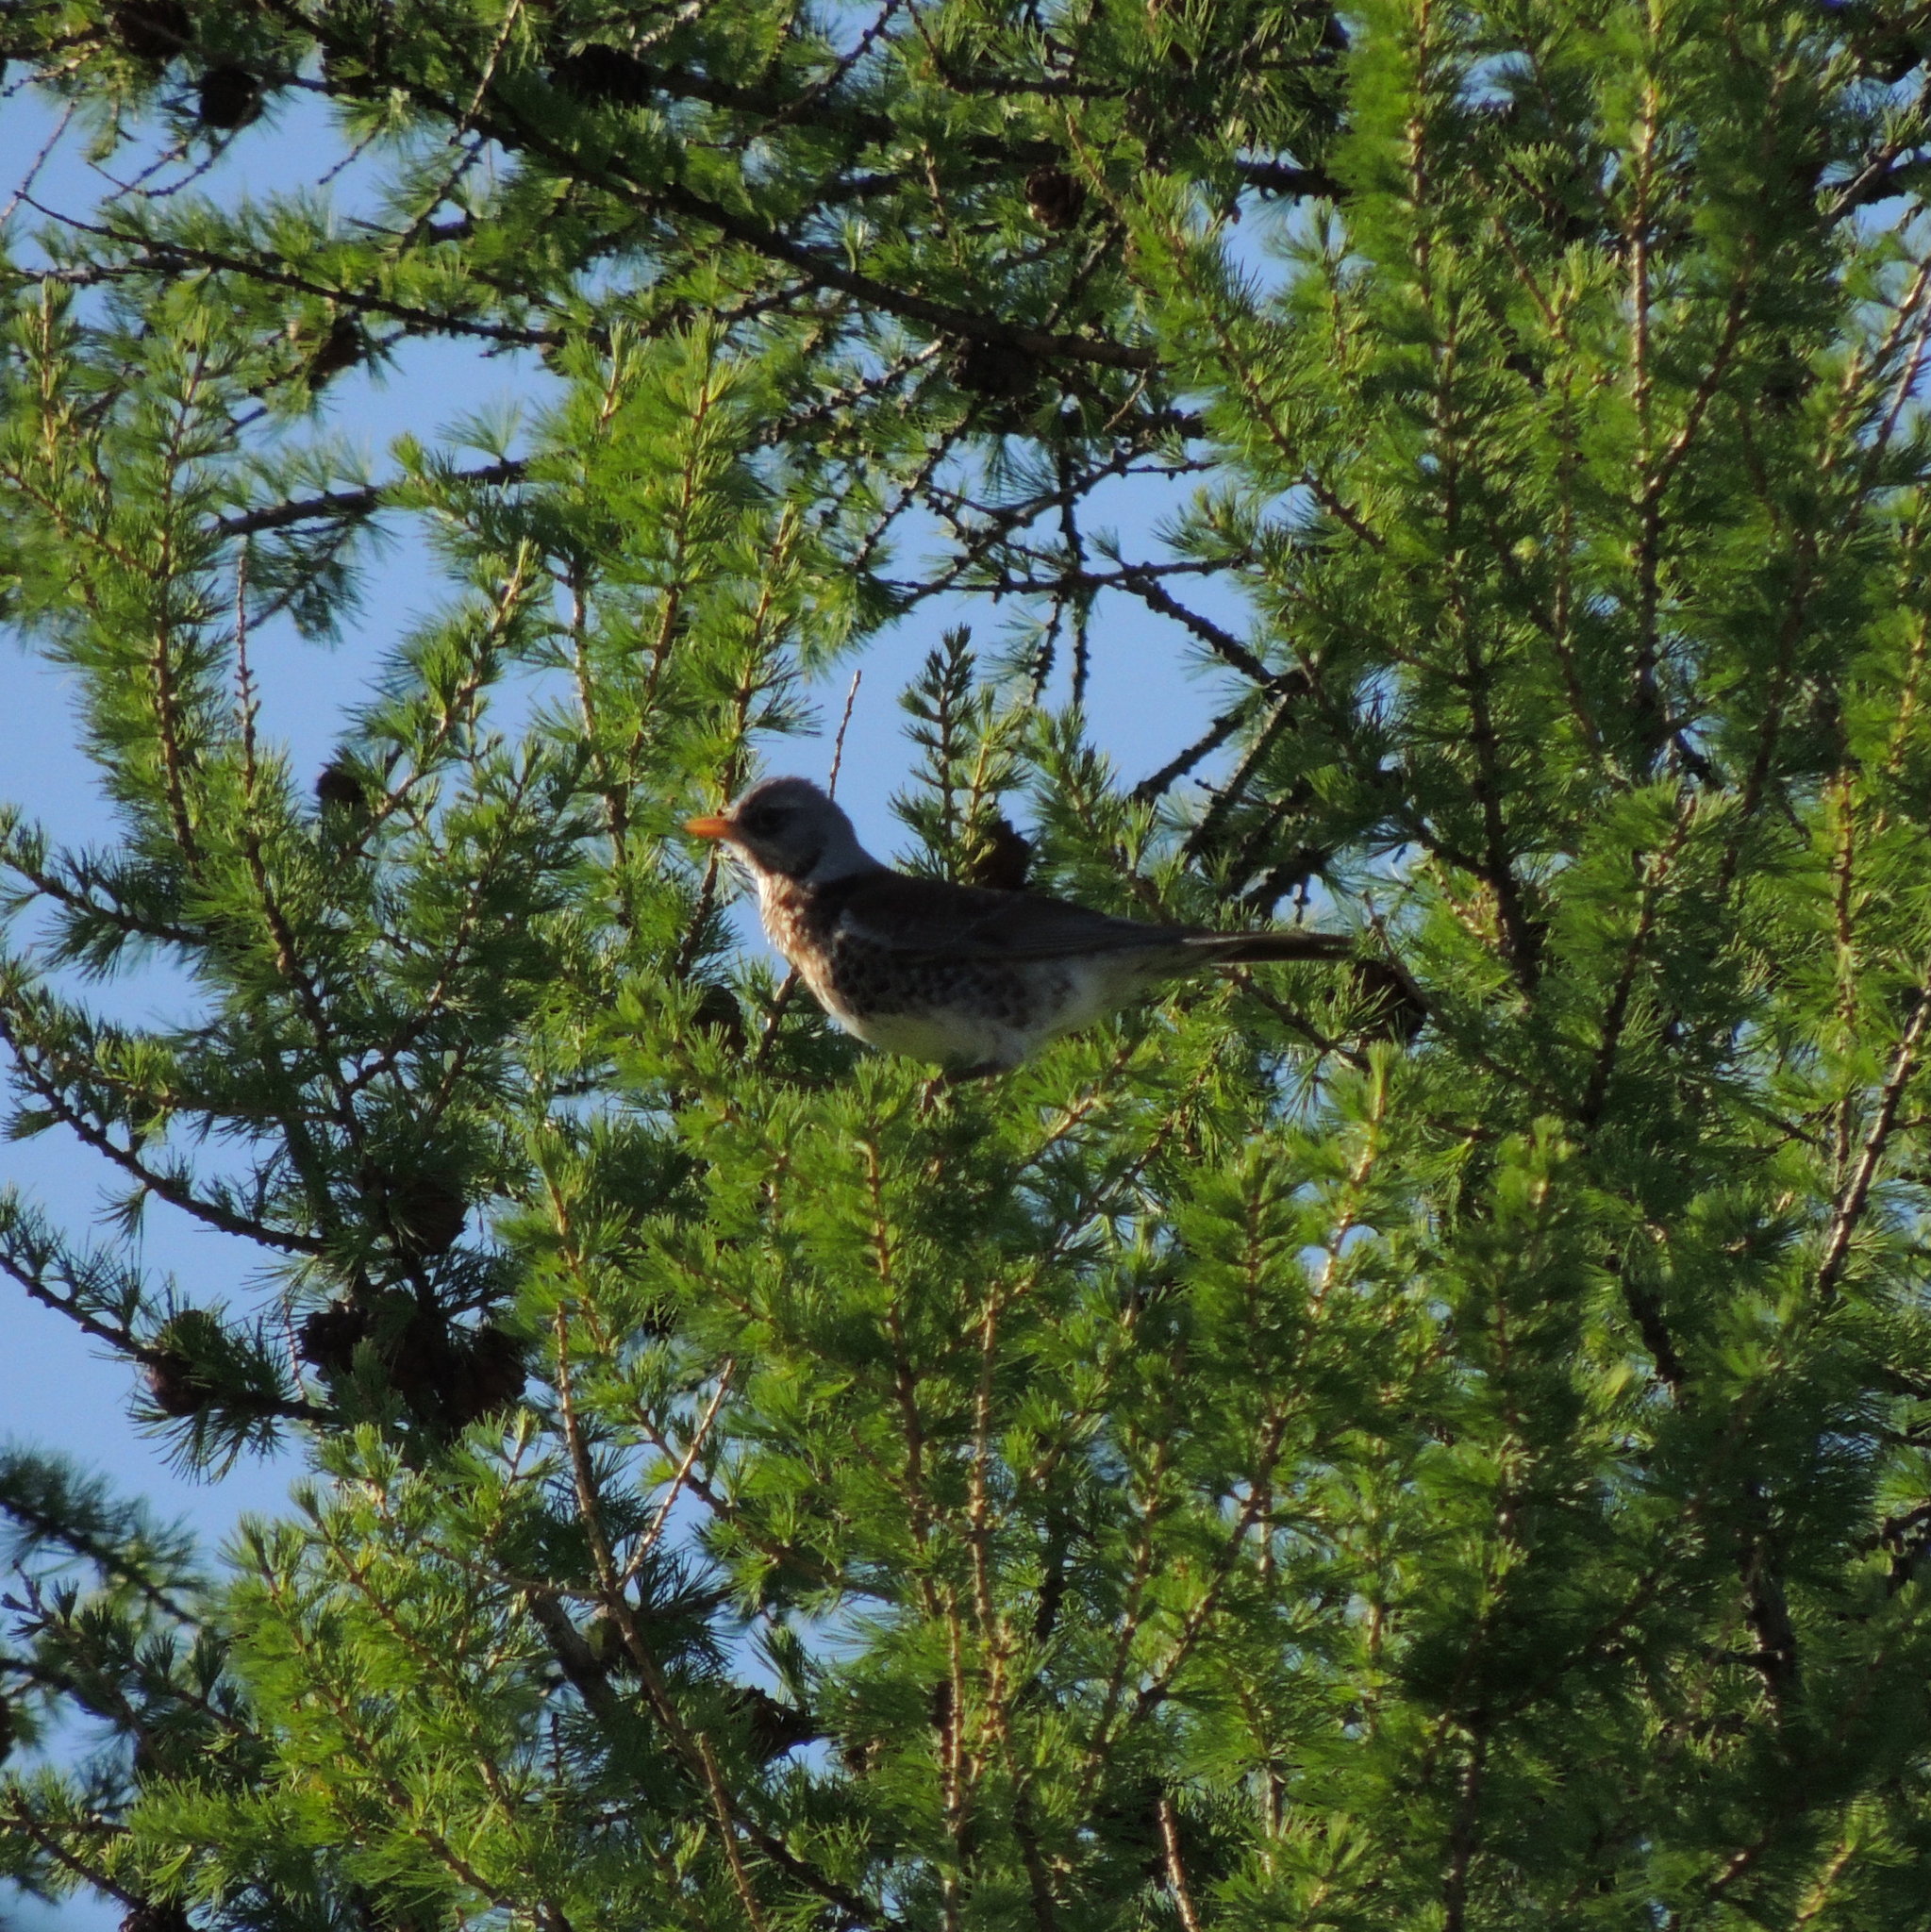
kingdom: Animalia
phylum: Chordata
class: Aves
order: Passeriformes
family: Turdidae
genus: Turdus
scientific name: Turdus pilaris
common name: Fieldfare
